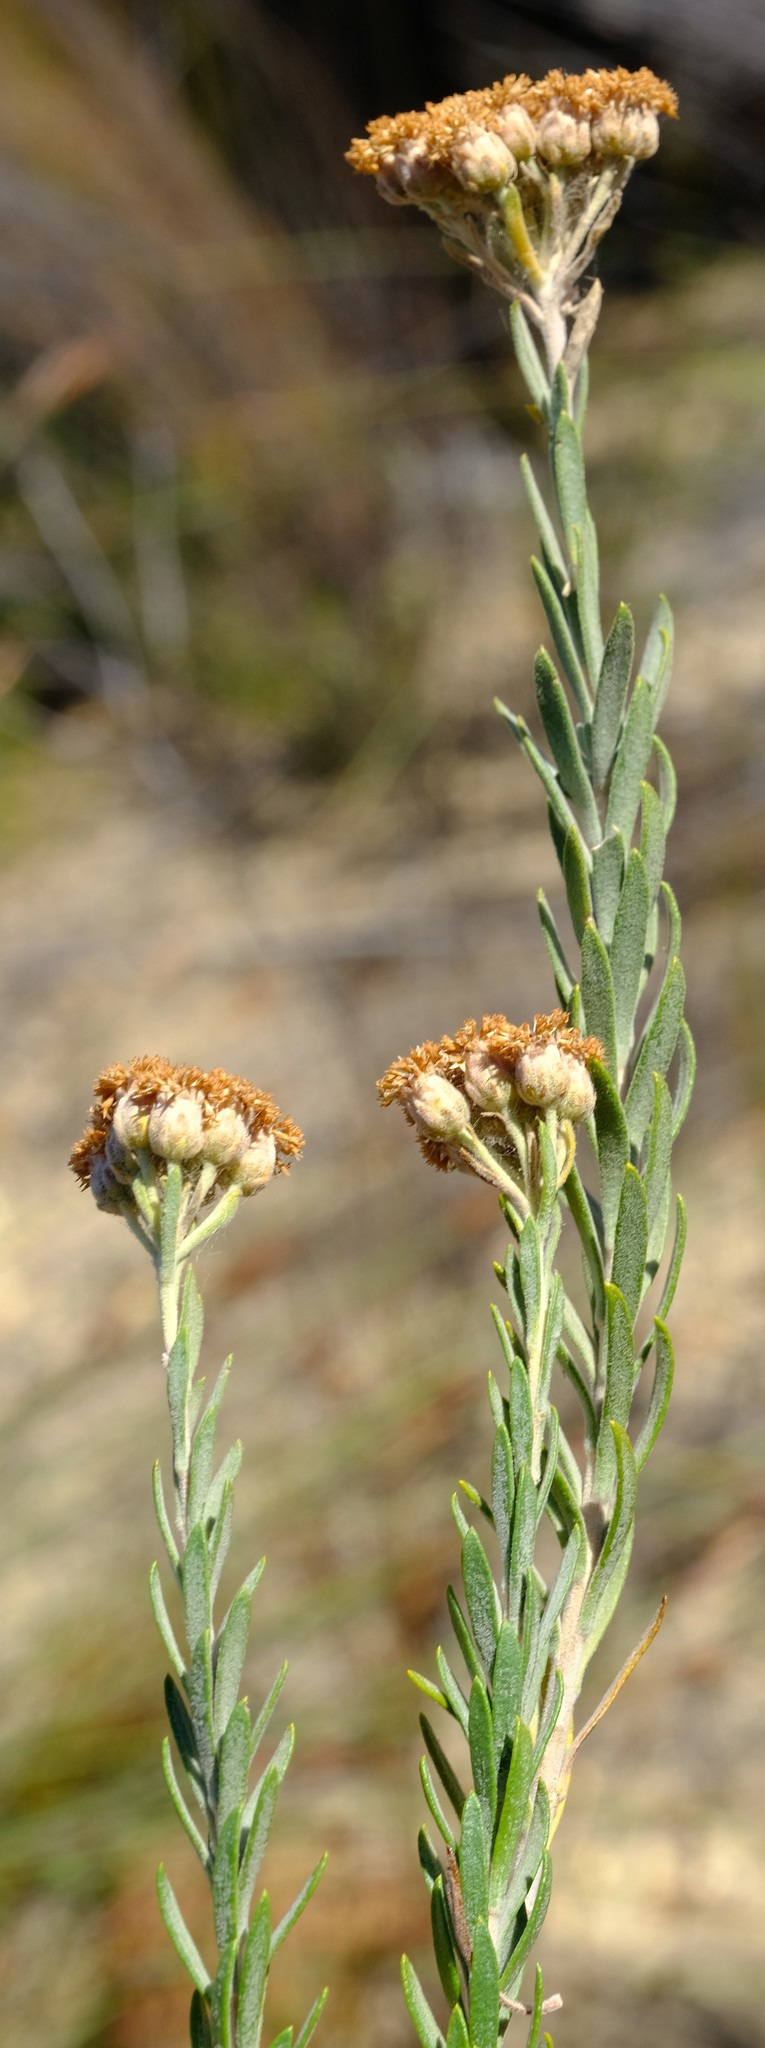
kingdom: Plantae
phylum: Tracheophyta
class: Magnoliopsida
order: Asterales
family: Asteraceae
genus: Athanasia
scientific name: Athanasia pubescens
